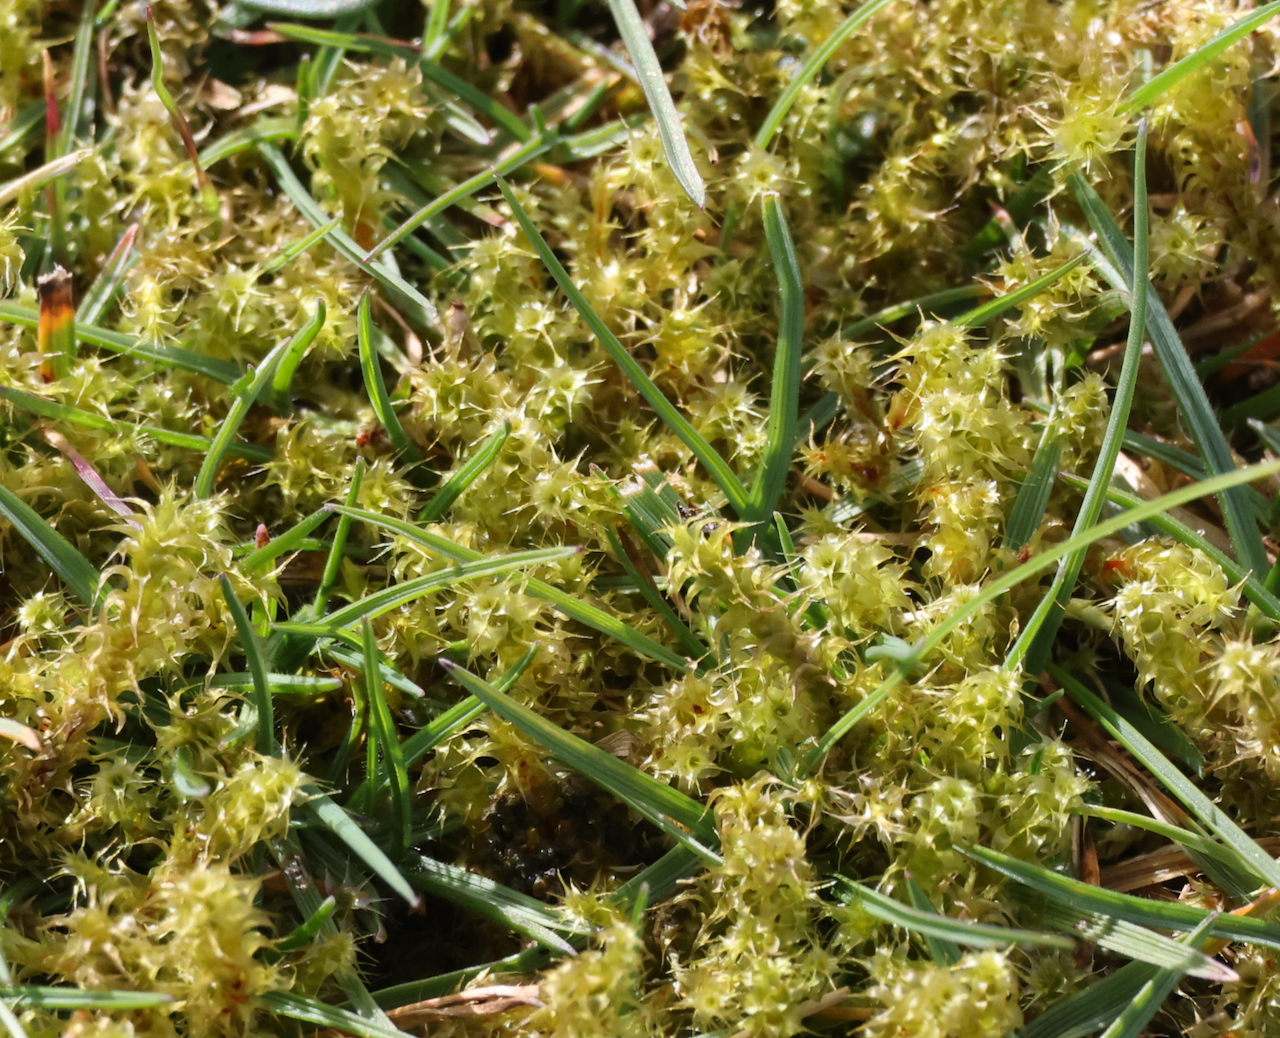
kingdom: Plantae
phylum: Bryophyta
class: Bryopsida
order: Hypnales
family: Hylocomiaceae
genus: Rhytidiadelphus
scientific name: Rhytidiadelphus squarrosus
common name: Springy turf-moss
